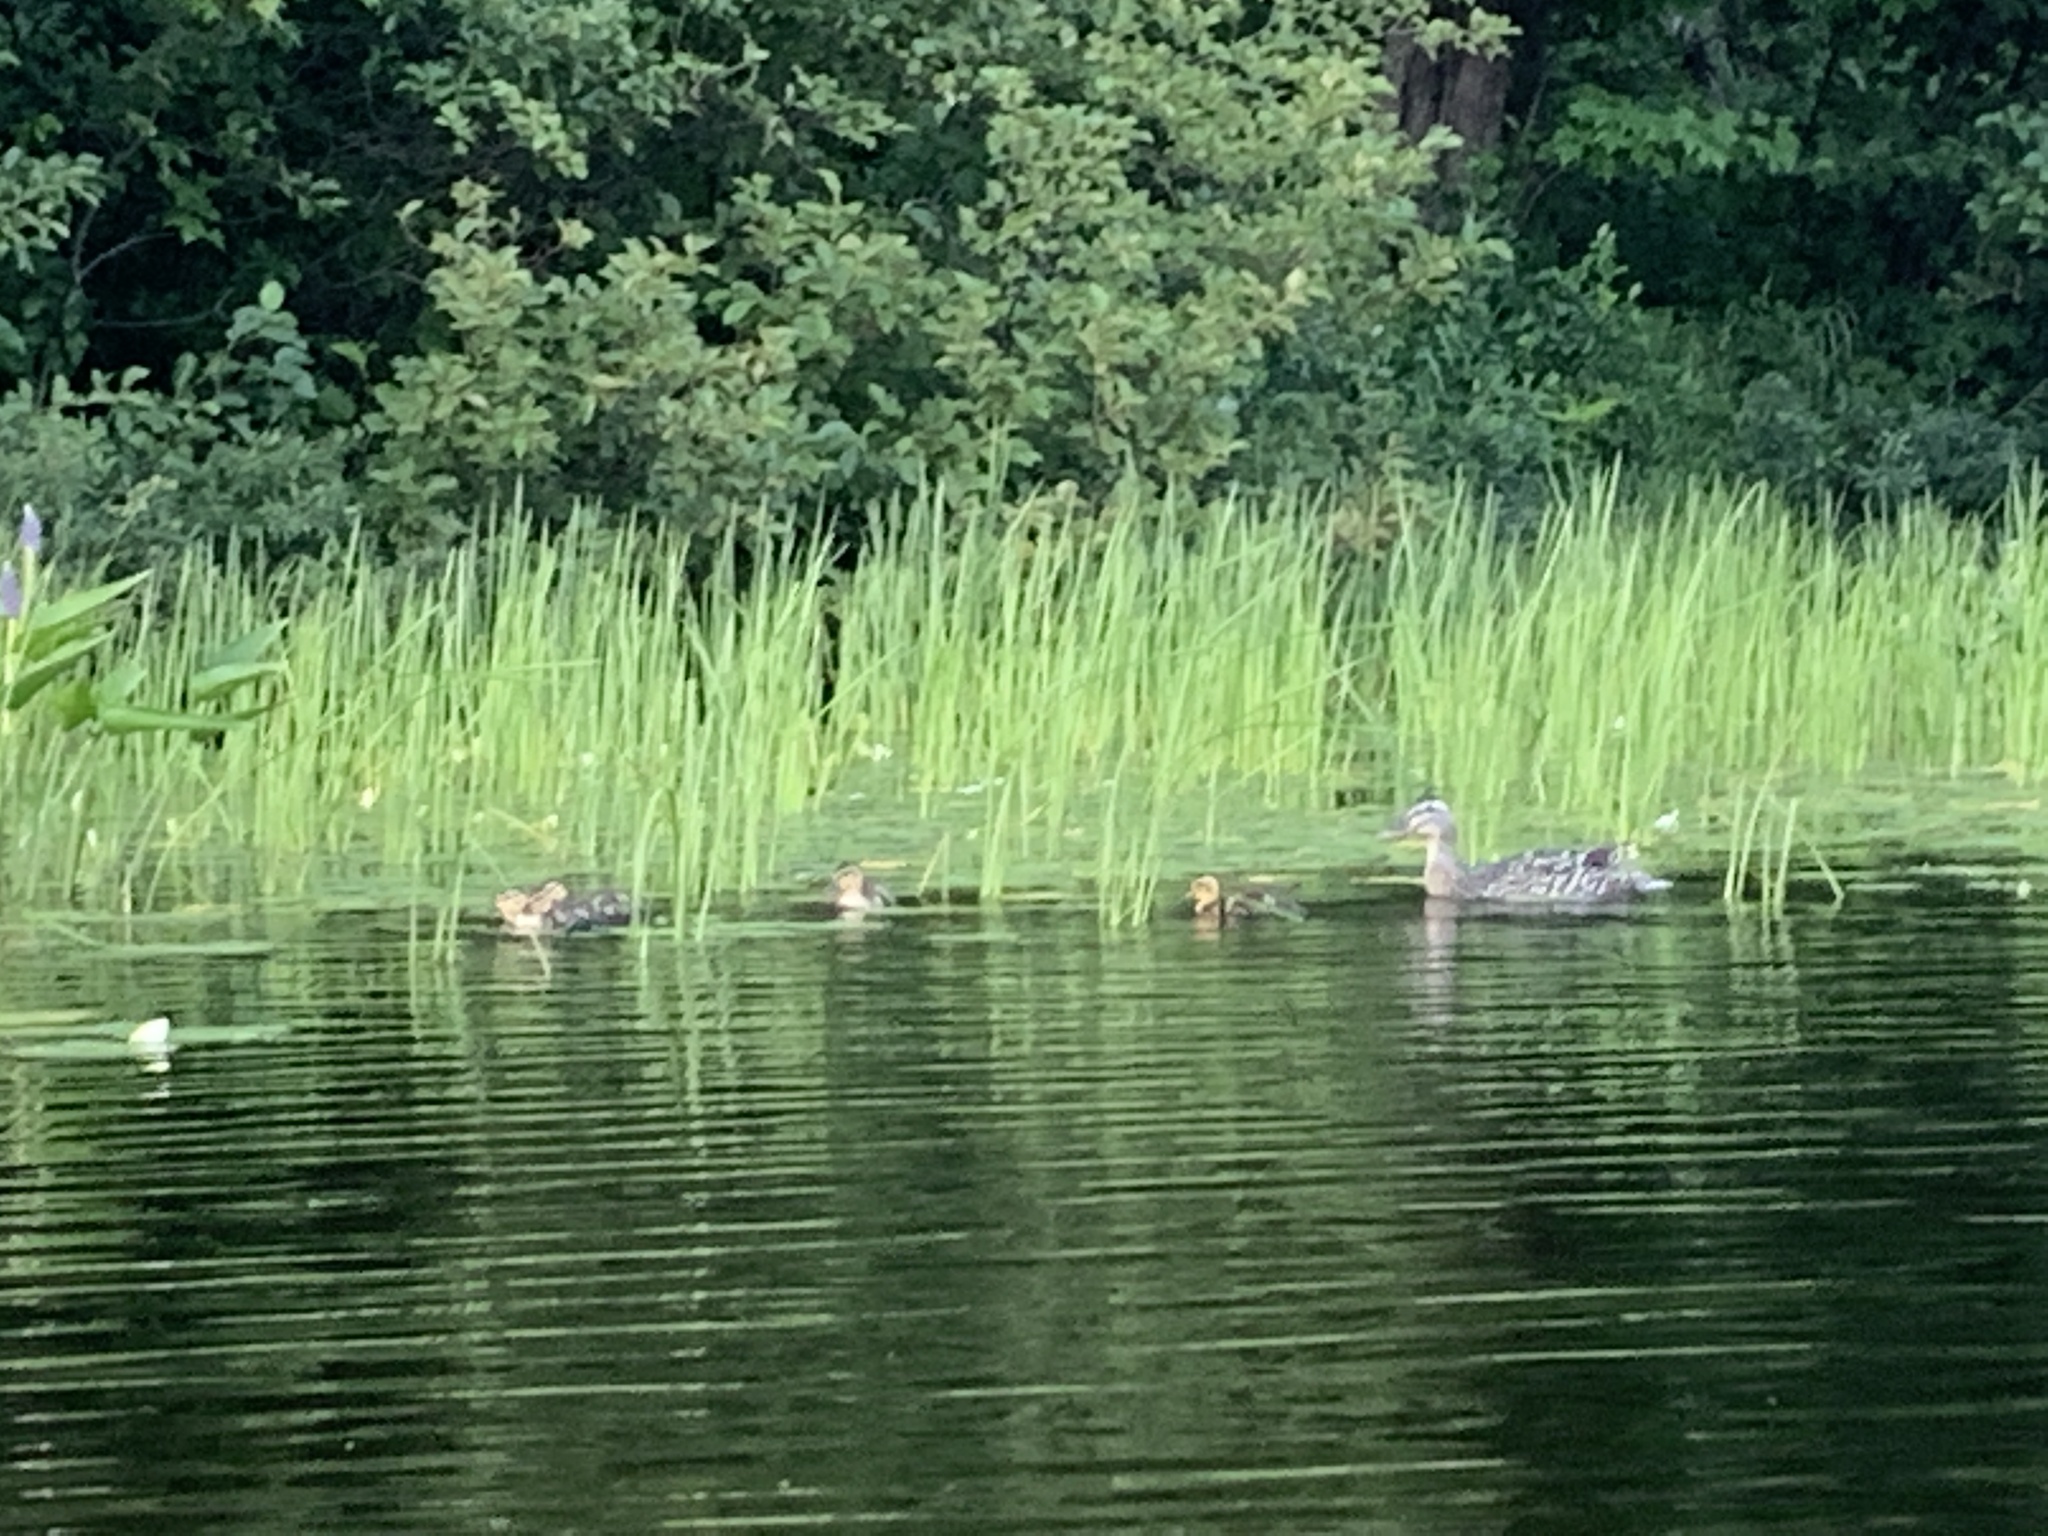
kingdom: Animalia
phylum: Chordata
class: Aves
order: Anseriformes
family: Anatidae
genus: Anas
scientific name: Anas platyrhynchos
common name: Mallard
